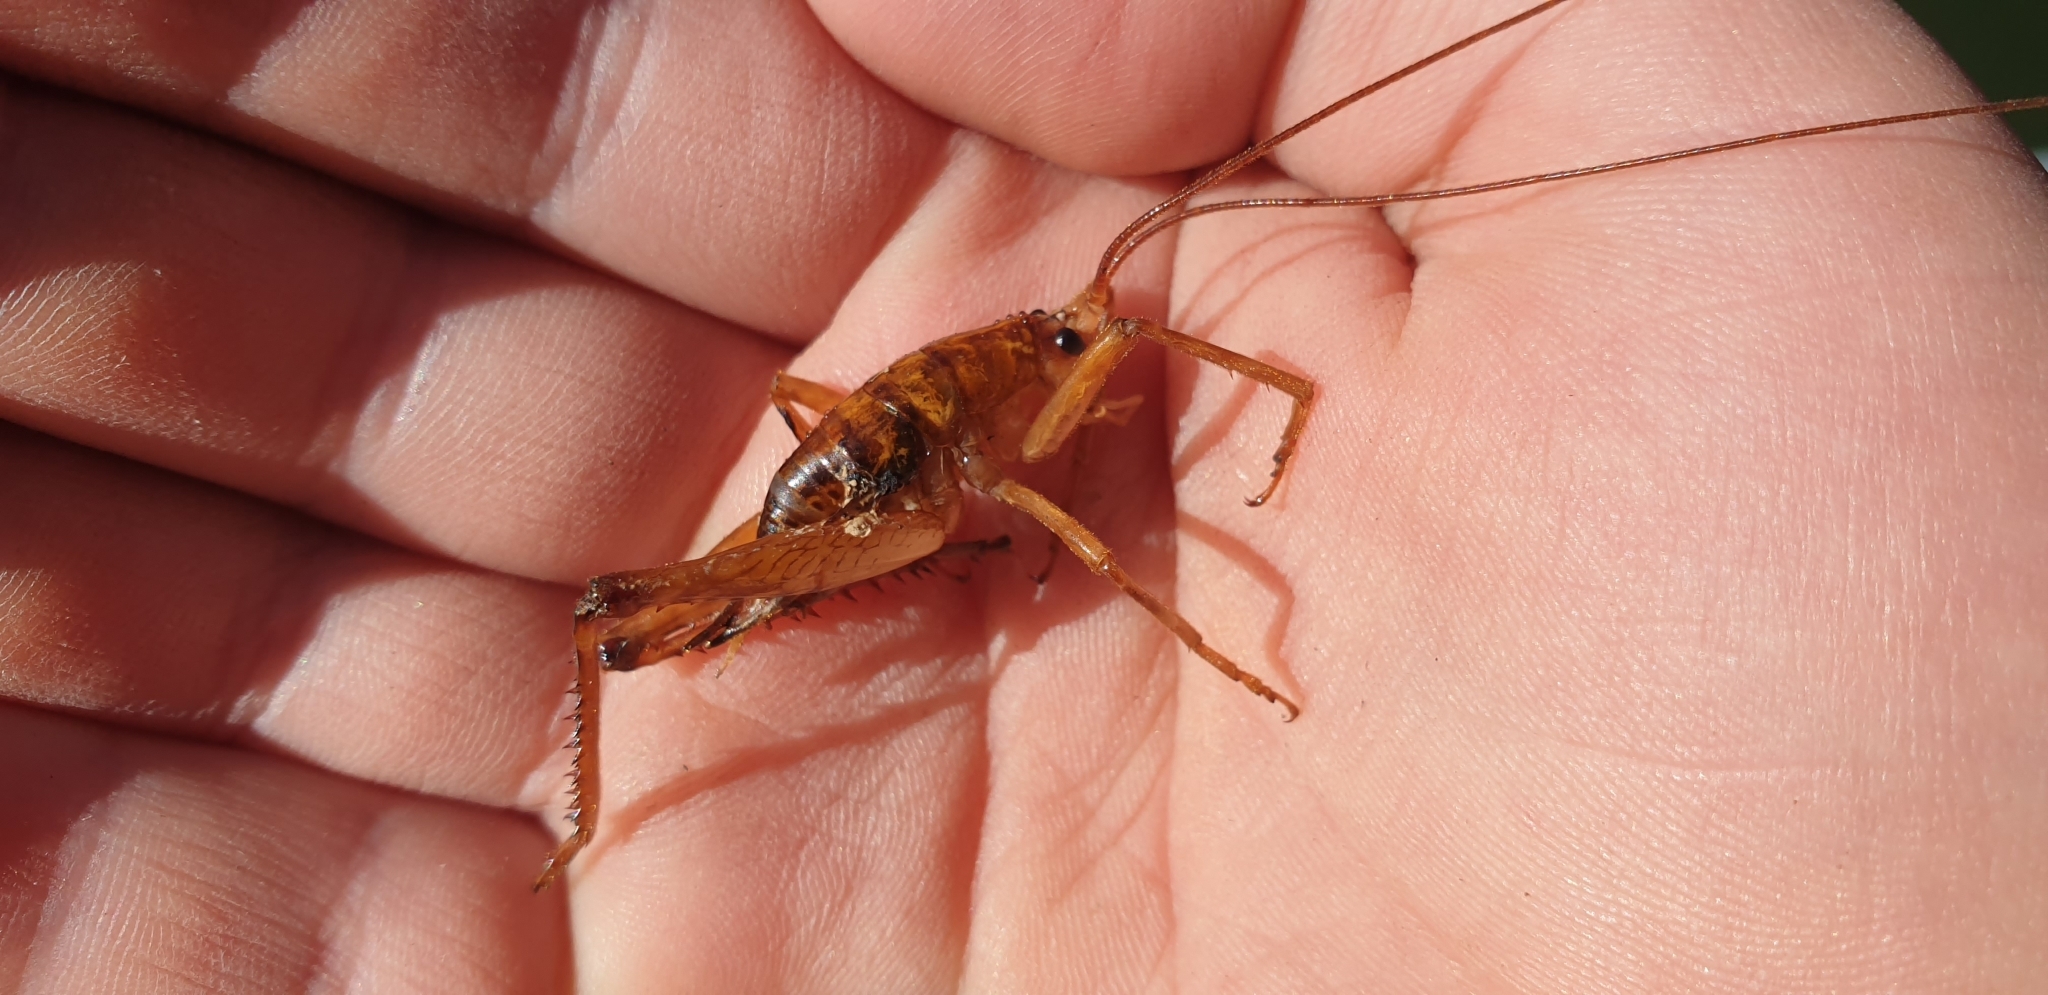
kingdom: Animalia
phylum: Arthropoda
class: Insecta
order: Orthoptera
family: Rhaphidophoridae
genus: Talitropsis
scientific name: Talitropsis sedilloti
